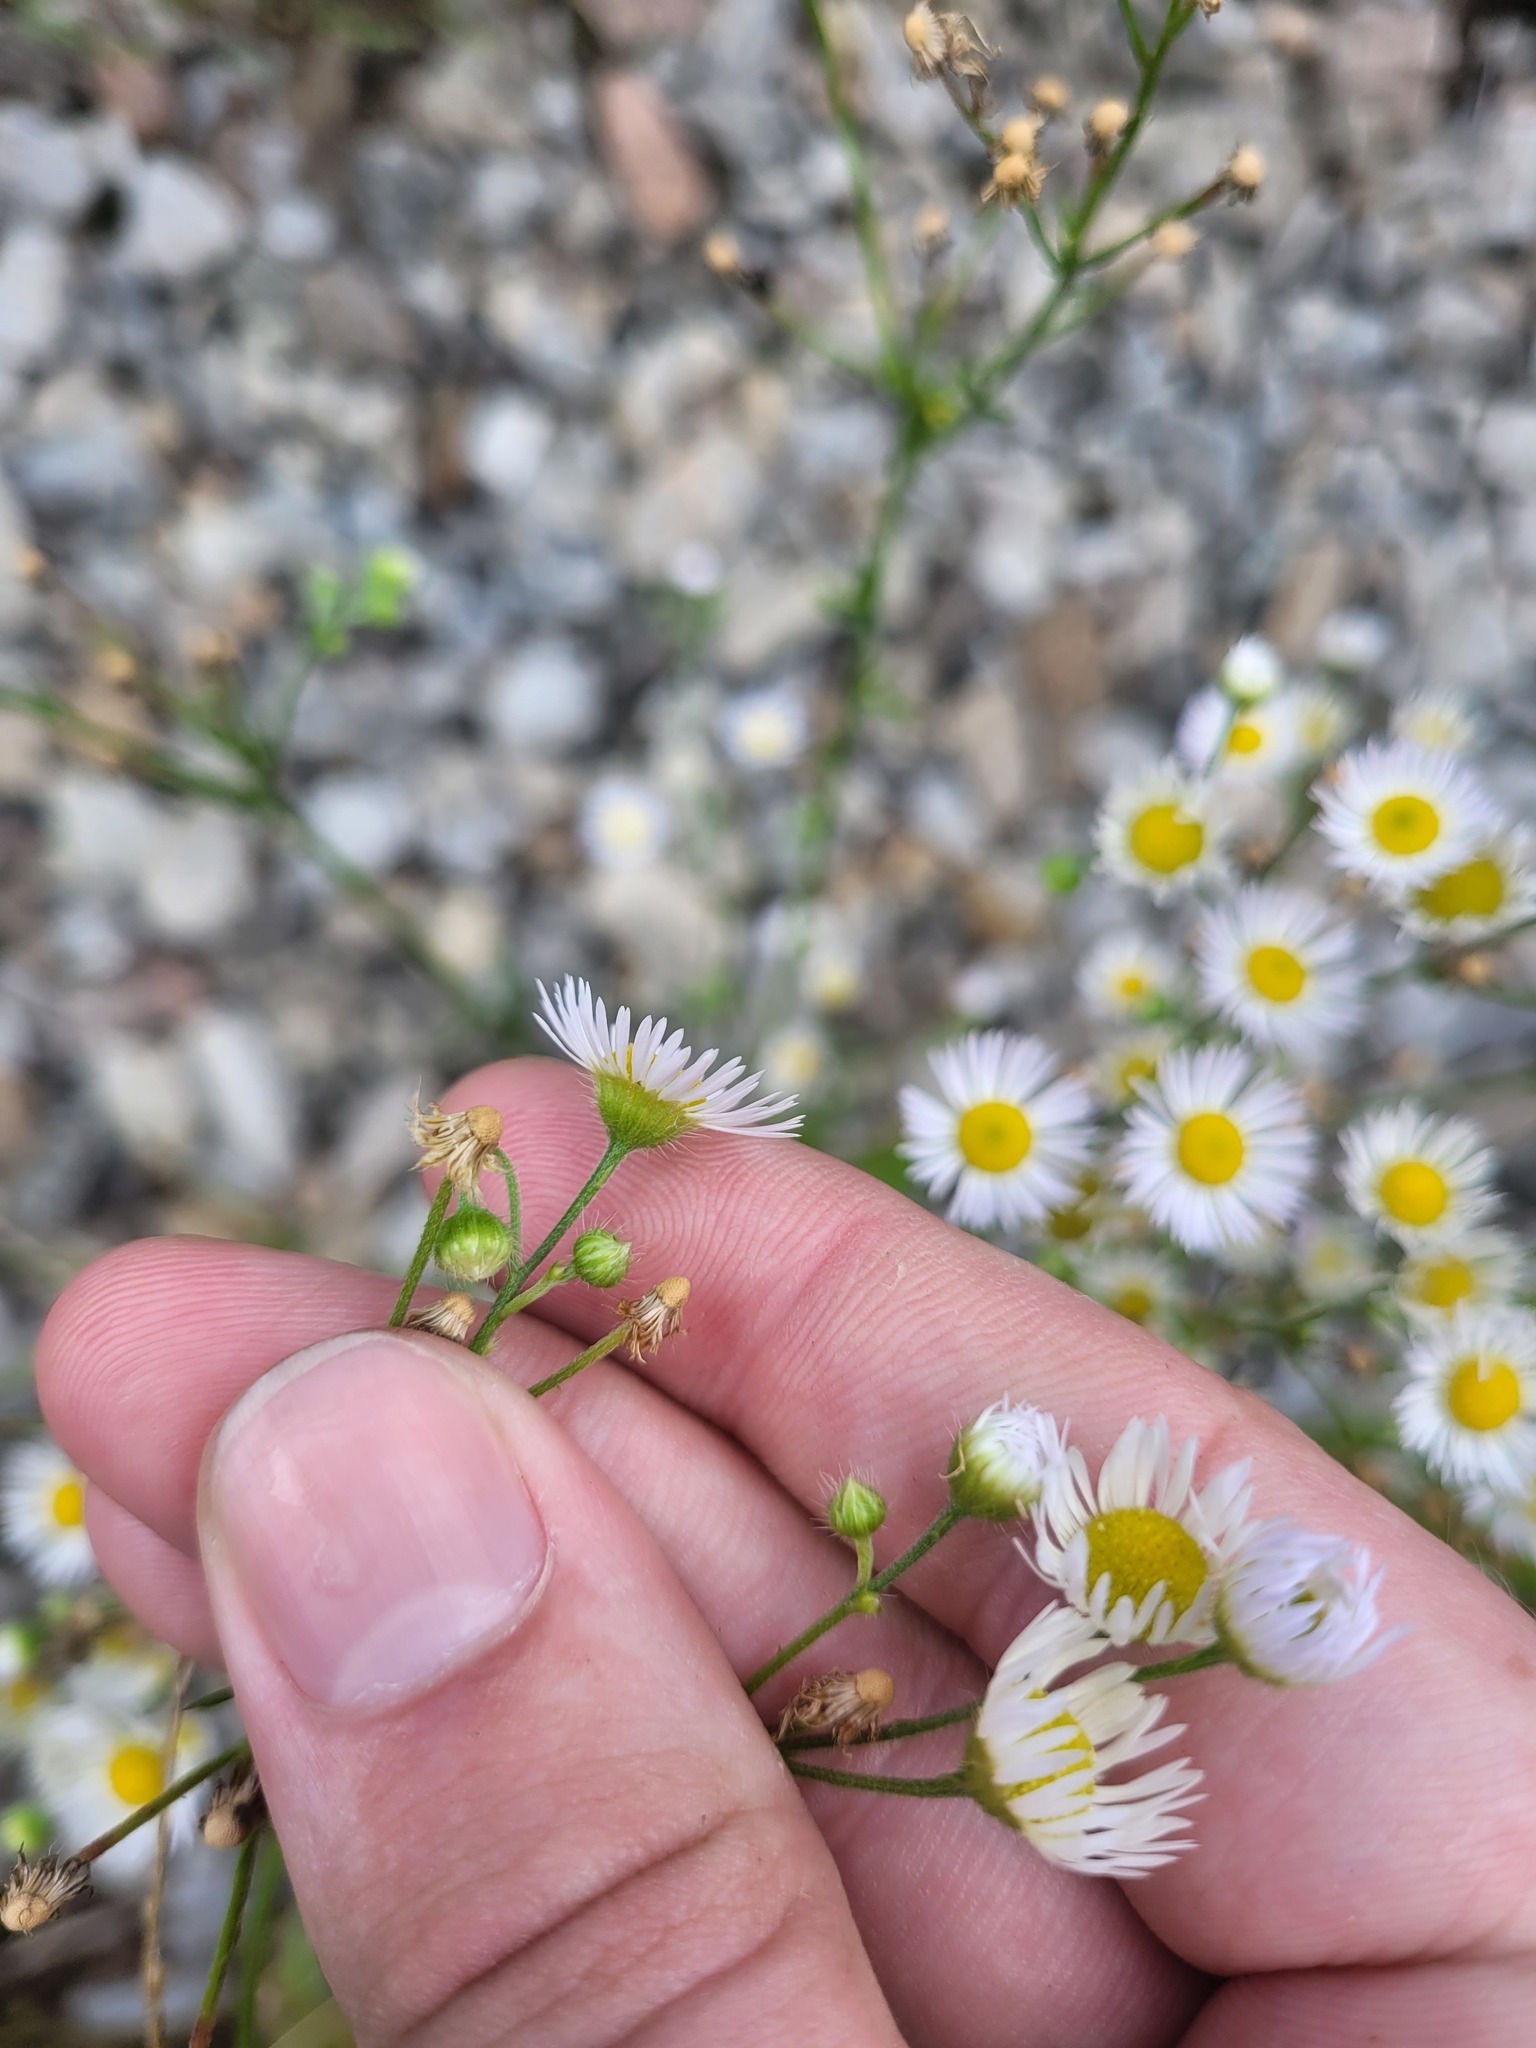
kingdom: Plantae
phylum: Tracheophyta
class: Magnoliopsida
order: Asterales
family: Asteraceae
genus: Erigeron
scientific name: Erigeron annuus
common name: Tall fleabane
